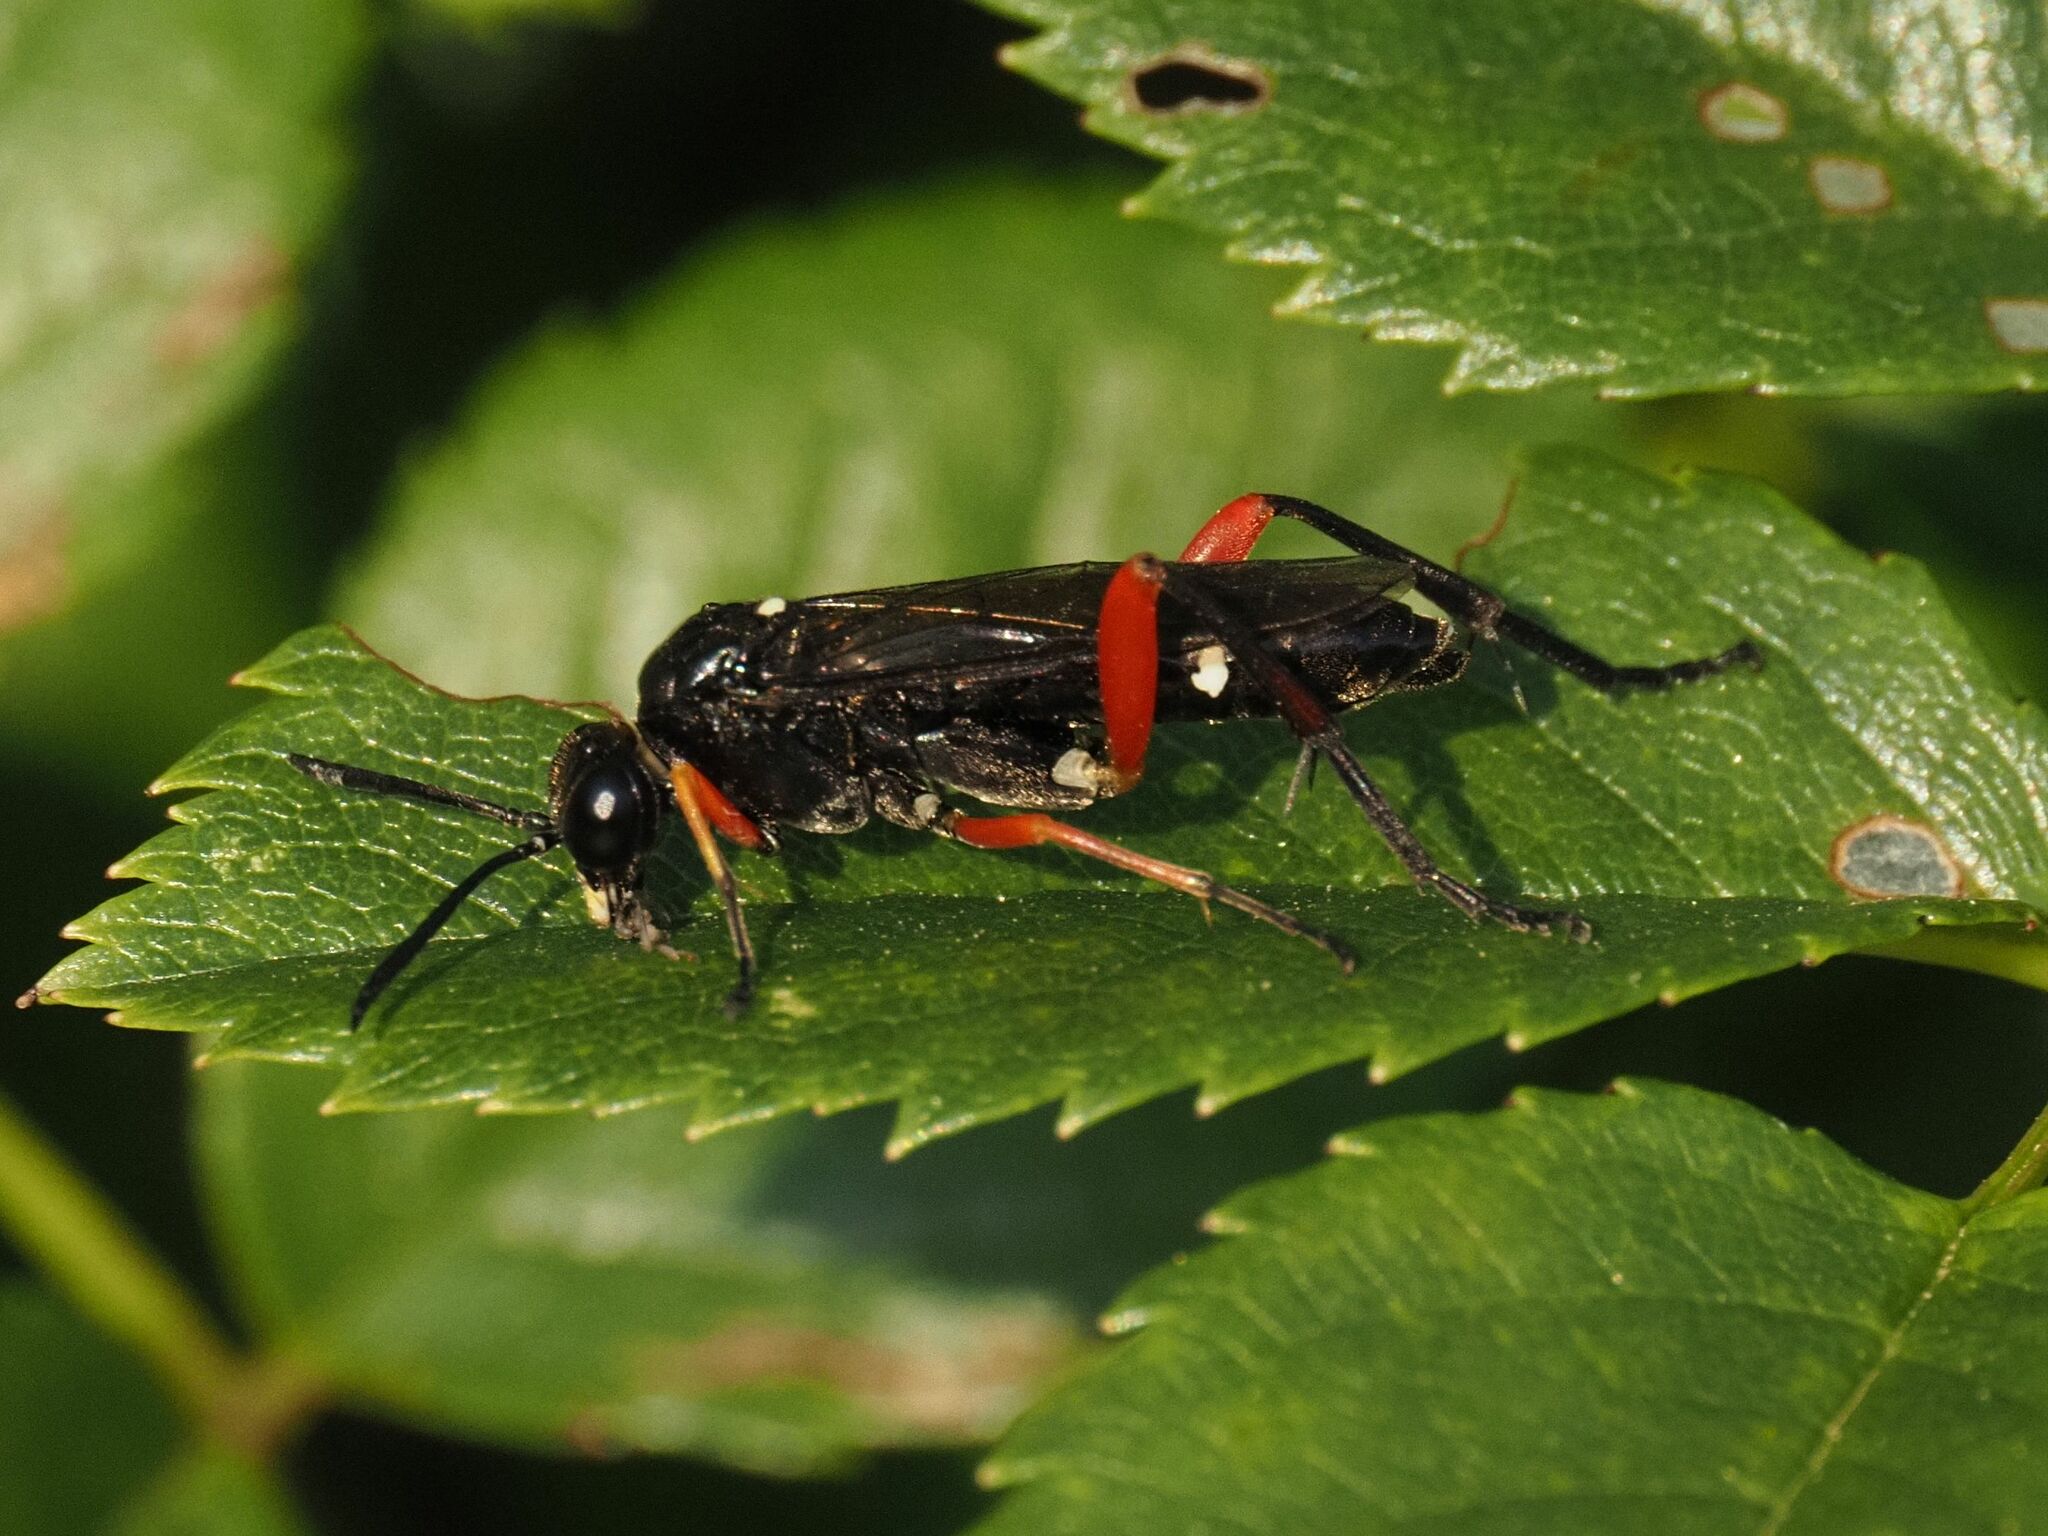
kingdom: Animalia
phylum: Arthropoda
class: Insecta
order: Hymenoptera
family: Tenthredinidae
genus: Macrophya
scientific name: Macrophya diversipes
